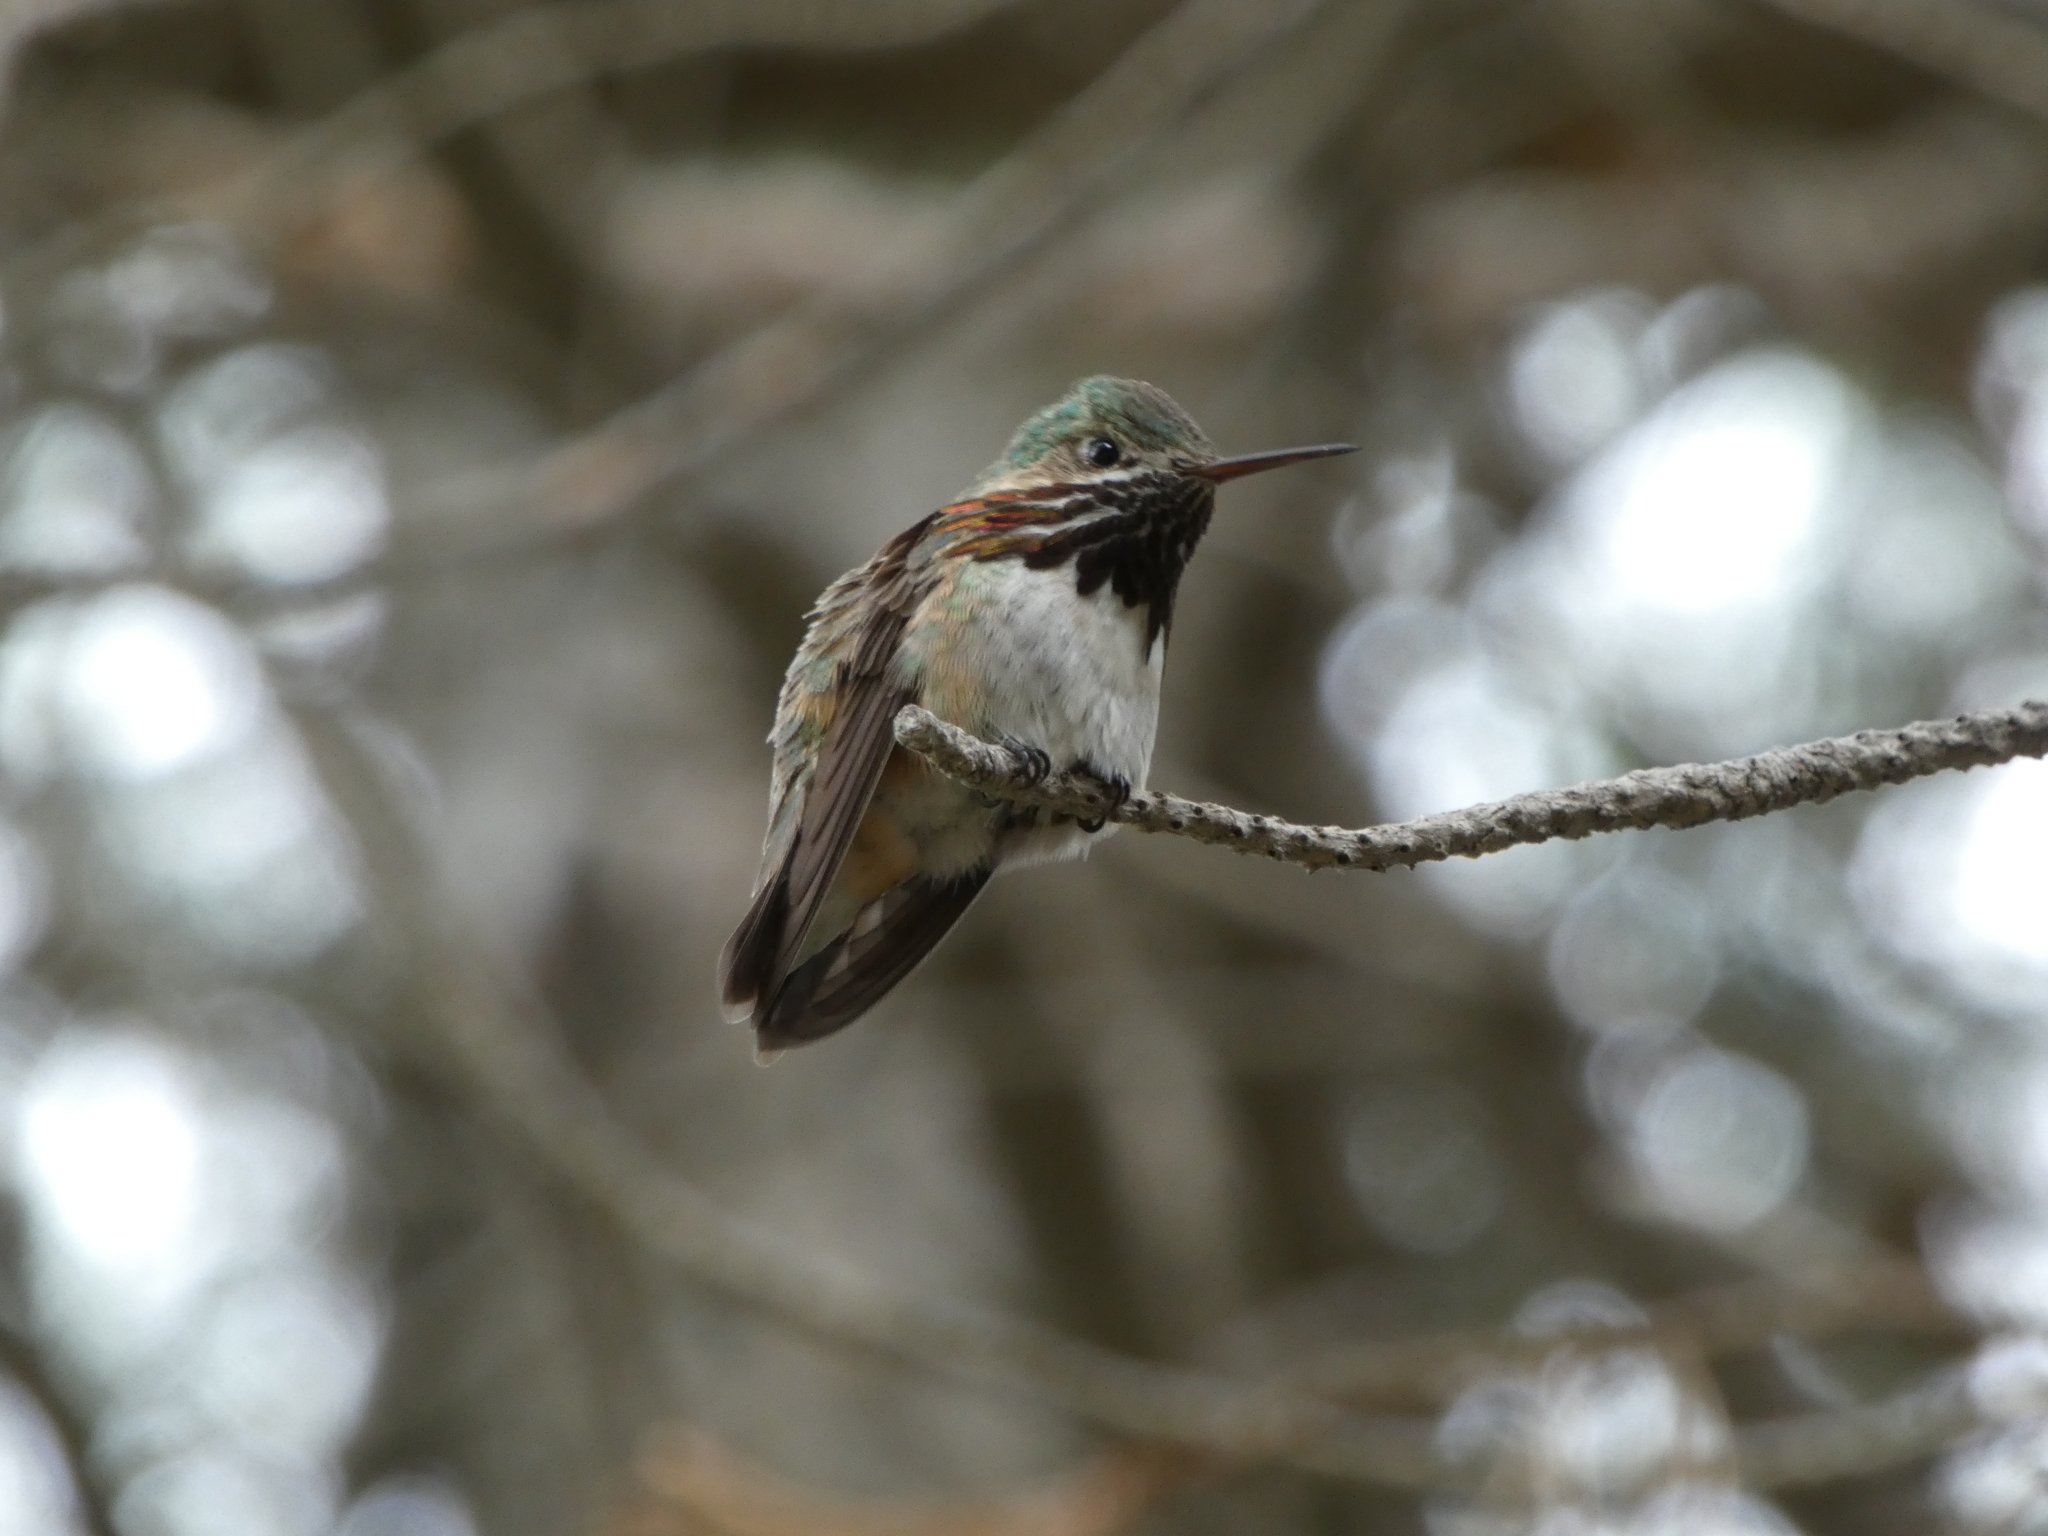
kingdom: Animalia
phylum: Chordata
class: Aves
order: Apodiformes
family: Trochilidae
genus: Selasphorus
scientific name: Selasphorus calliope
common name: Calliope hummingbird
